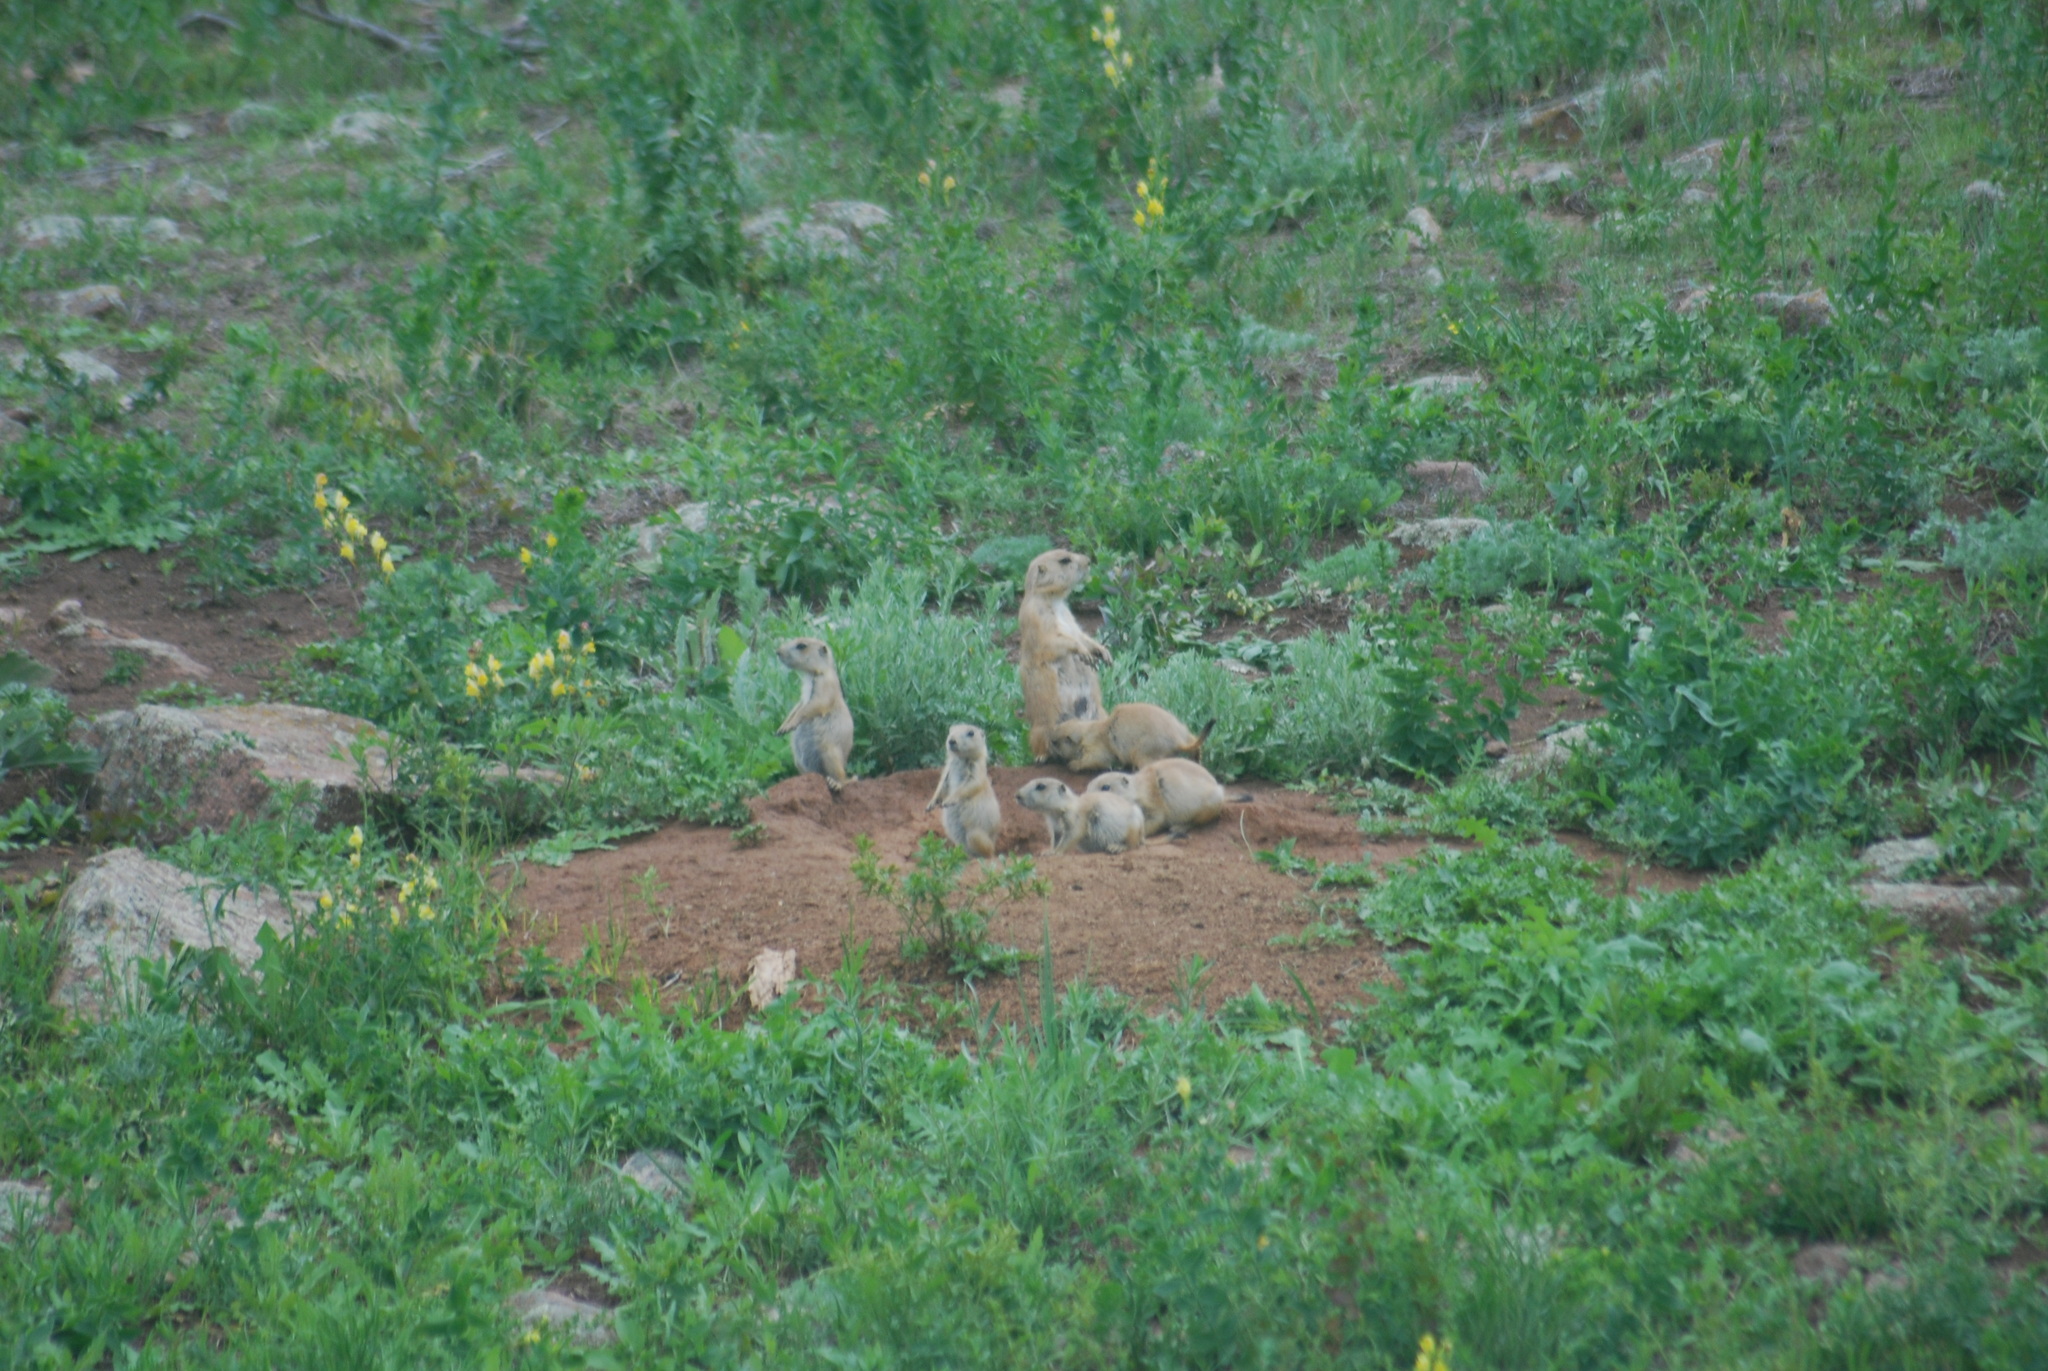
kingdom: Animalia
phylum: Chordata
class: Mammalia
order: Rodentia
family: Sciuridae
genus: Cynomys
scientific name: Cynomys ludovicianus
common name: Black-tailed prairie dog
